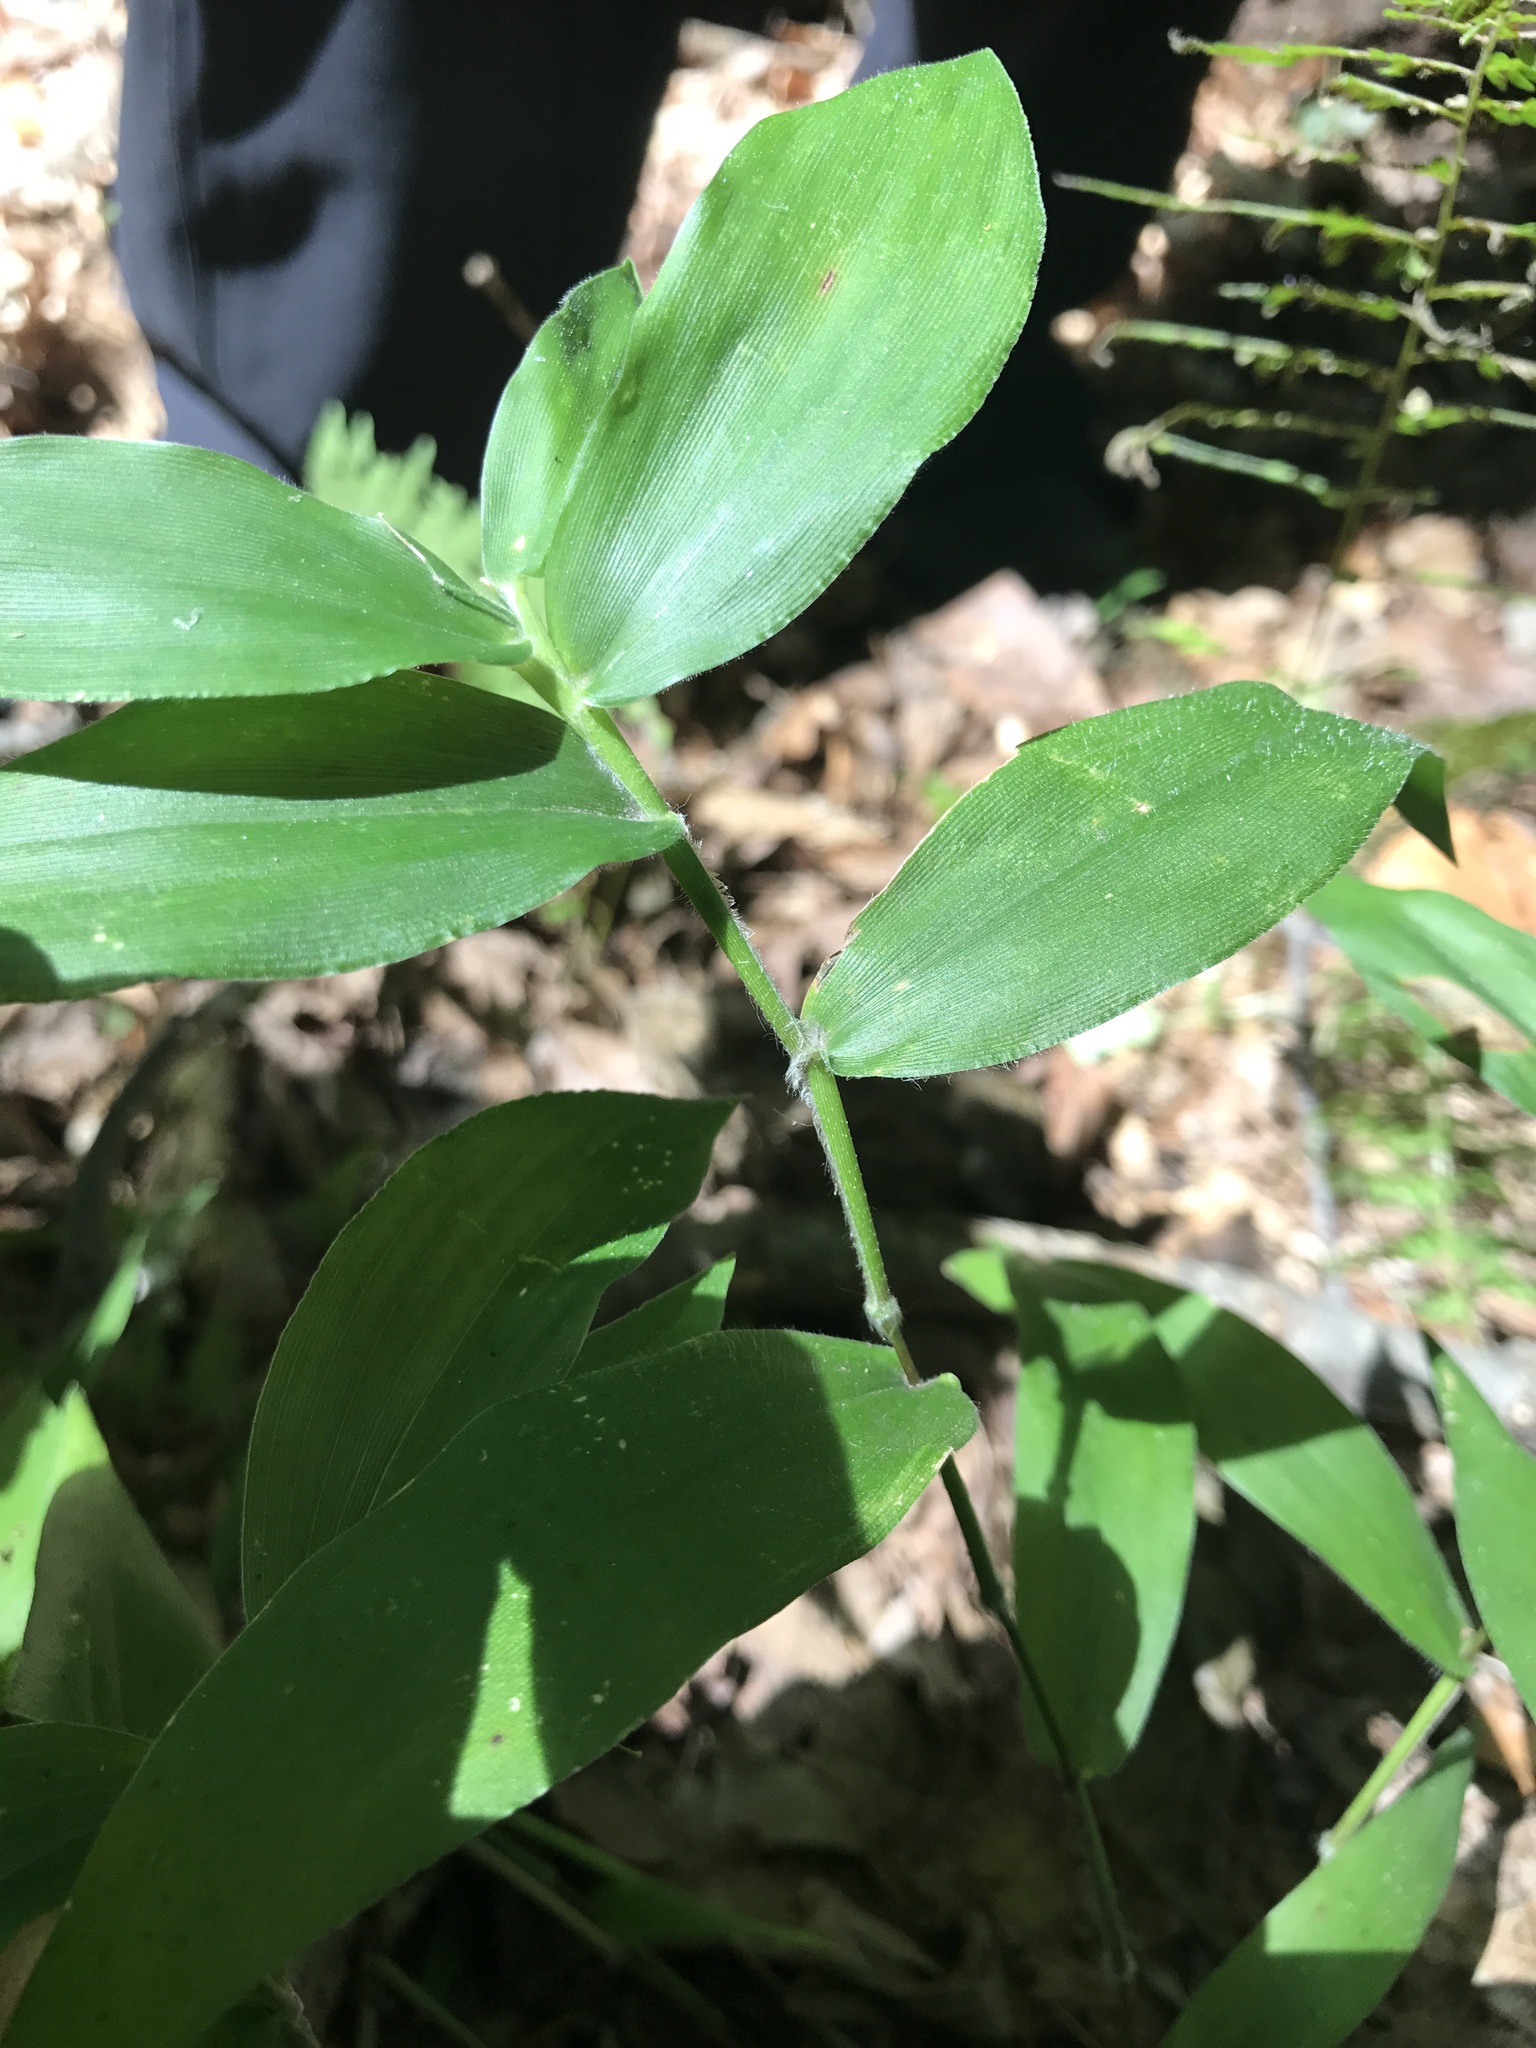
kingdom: Plantae
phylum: Tracheophyta
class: Liliopsida
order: Poales
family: Poaceae
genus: Dichanthelium
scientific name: Dichanthelium boscii
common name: Bosc's panic grass
